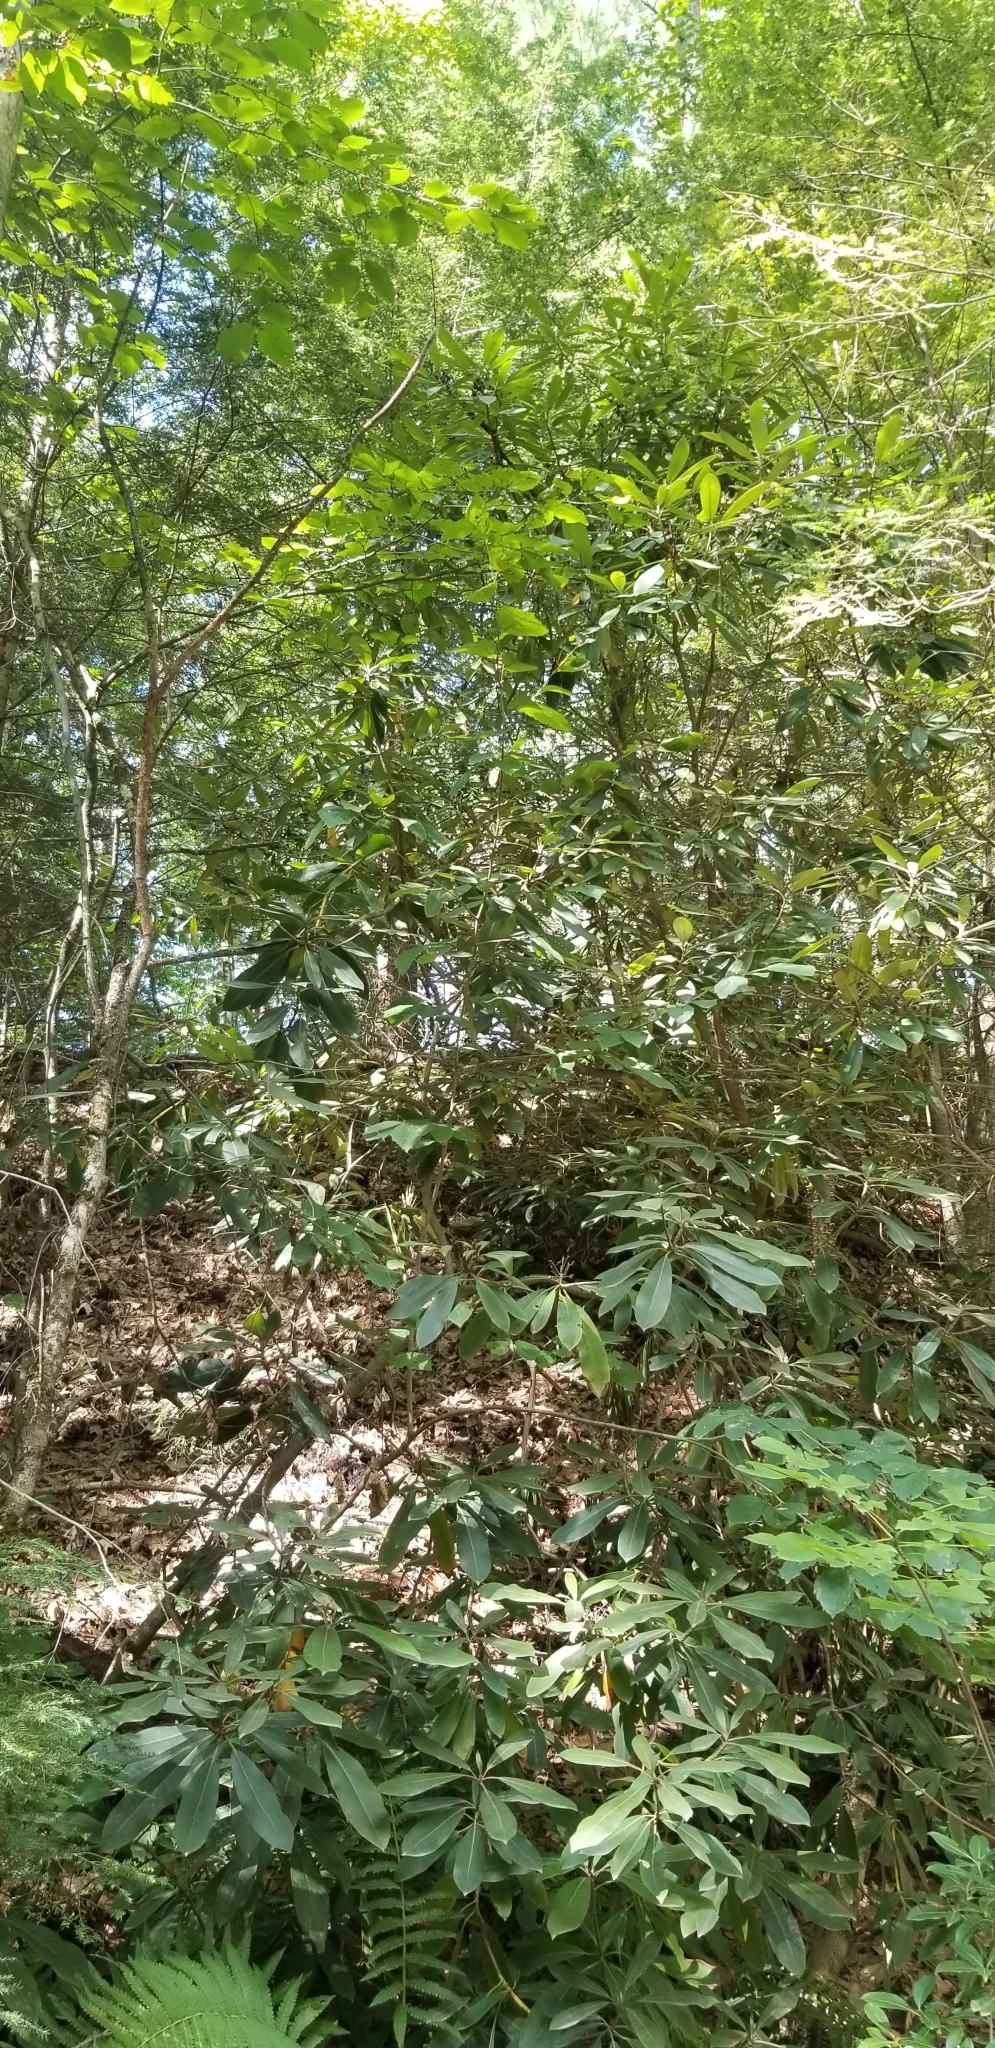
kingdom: Plantae
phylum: Tracheophyta
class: Magnoliopsida
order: Ericales
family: Ericaceae
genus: Rhododendron
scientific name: Rhododendron maximum
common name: Great rhododendron
